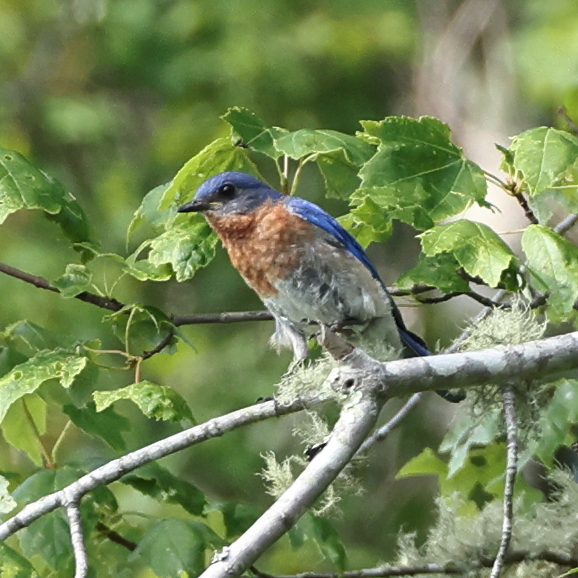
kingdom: Animalia
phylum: Chordata
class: Aves
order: Passeriformes
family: Turdidae
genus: Sialia
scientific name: Sialia sialis
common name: Eastern bluebird
